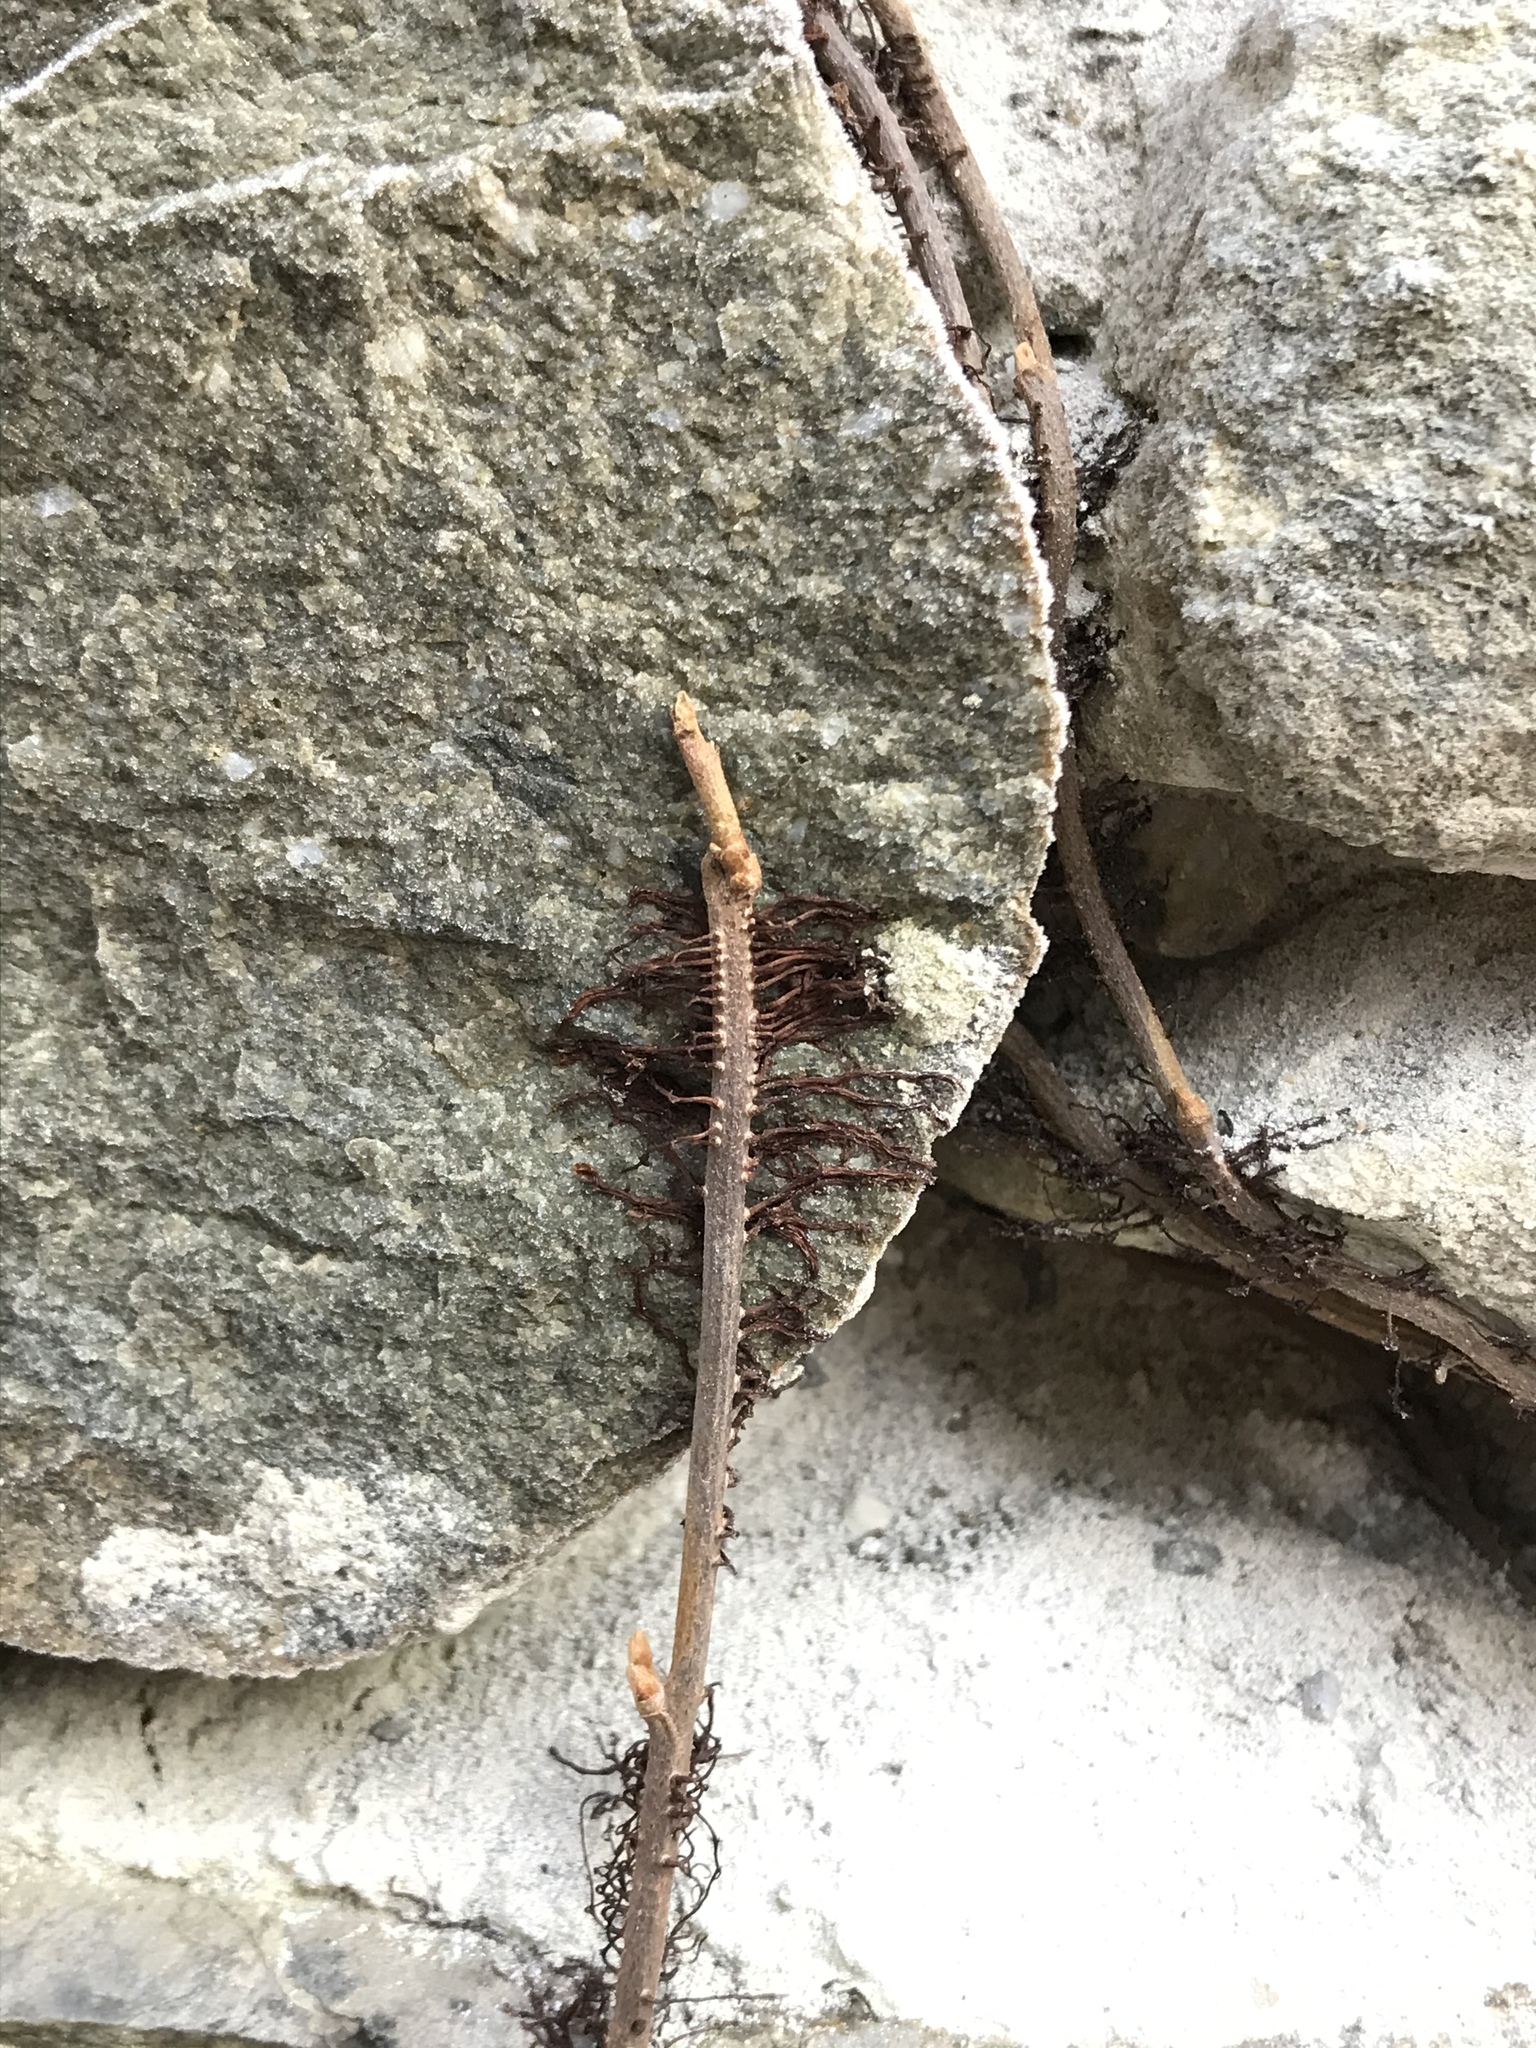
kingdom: Plantae
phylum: Tracheophyta
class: Magnoliopsida
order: Sapindales
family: Anacardiaceae
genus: Toxicodendron
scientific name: Toxicodendron radicans
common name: Poison ivy
